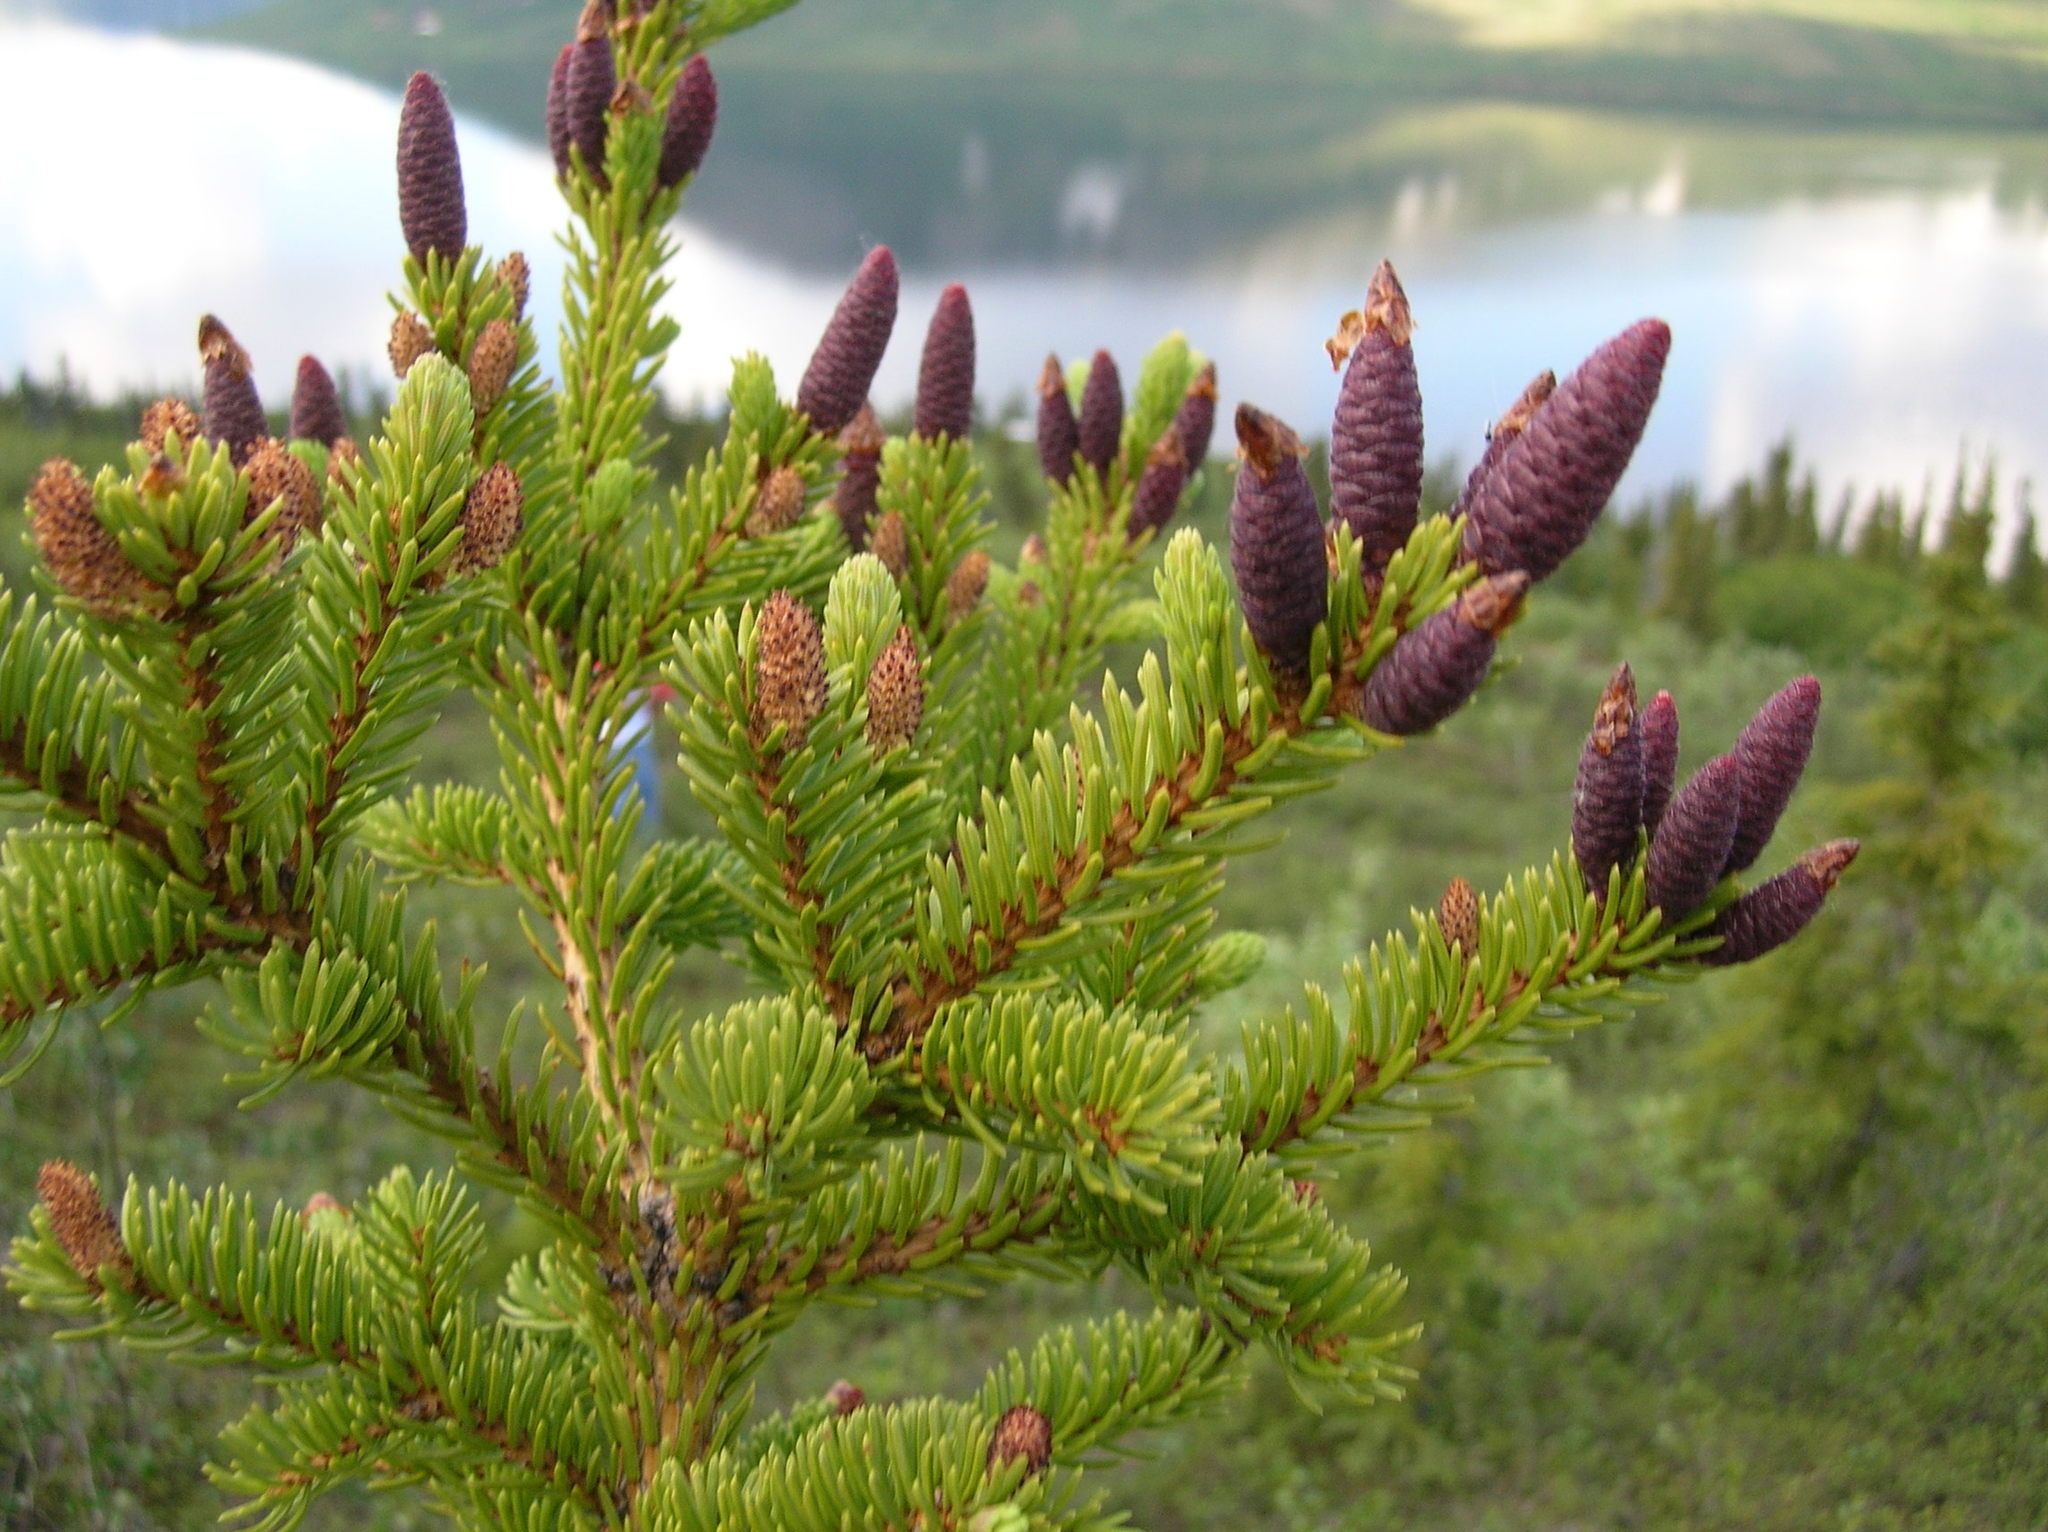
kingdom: Plantae
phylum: Tracheophyta
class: Pinopsida
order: Pinales
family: Pinaceae
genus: Picea
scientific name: Picea glauca
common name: White spruce
